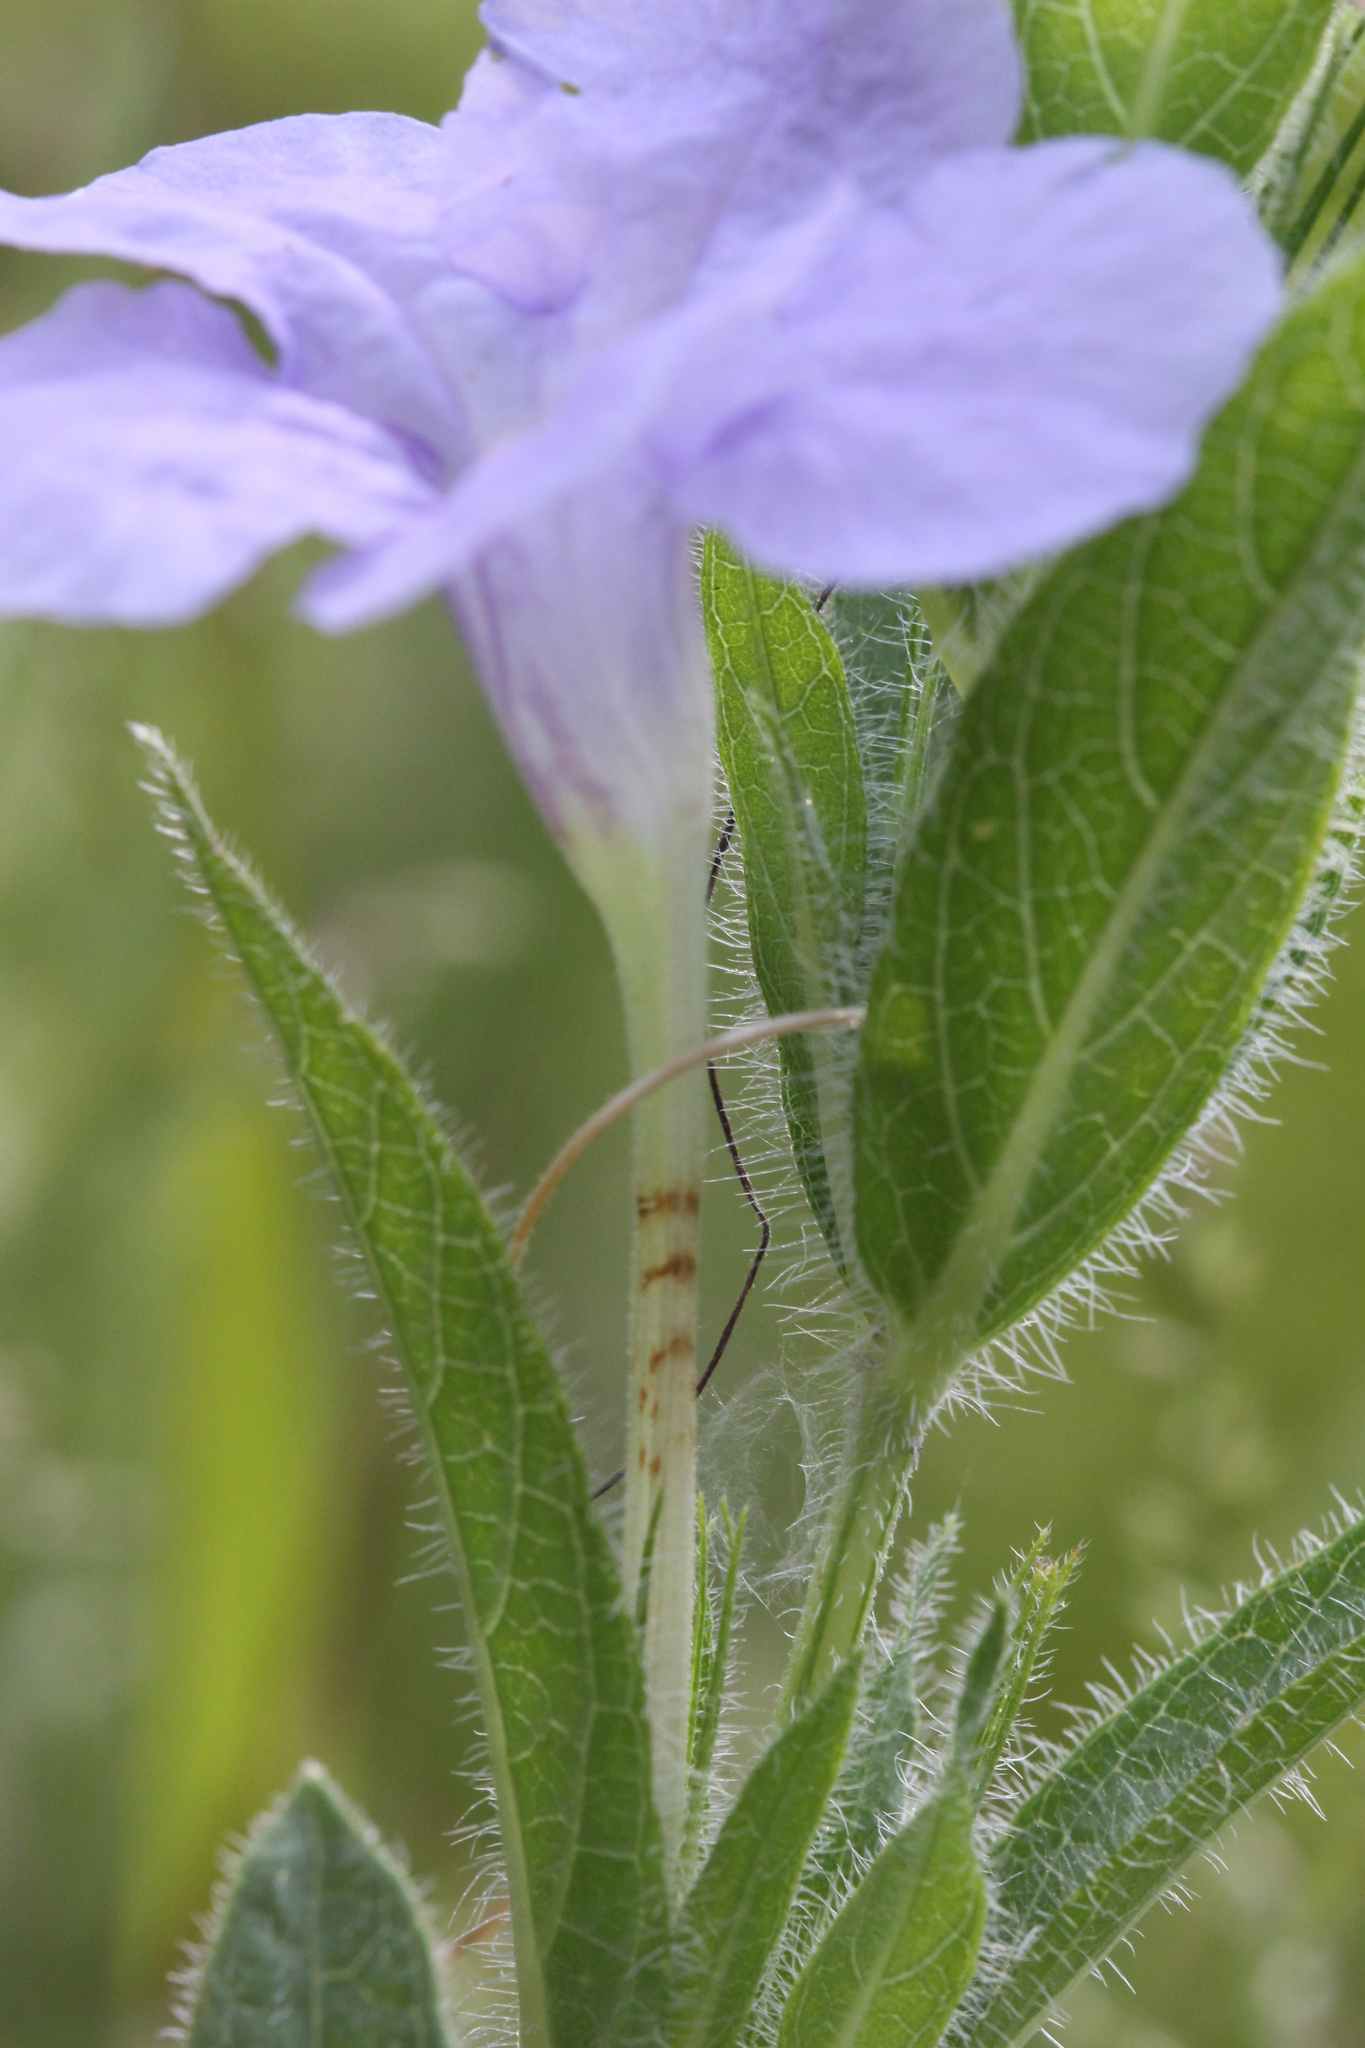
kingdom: Plantae
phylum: Tracheophyta
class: Magnoliopsida
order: Lamiales
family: Acanthaceae
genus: Ruellia
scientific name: Ruellia humilis
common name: Fringe-leaf ruellia
